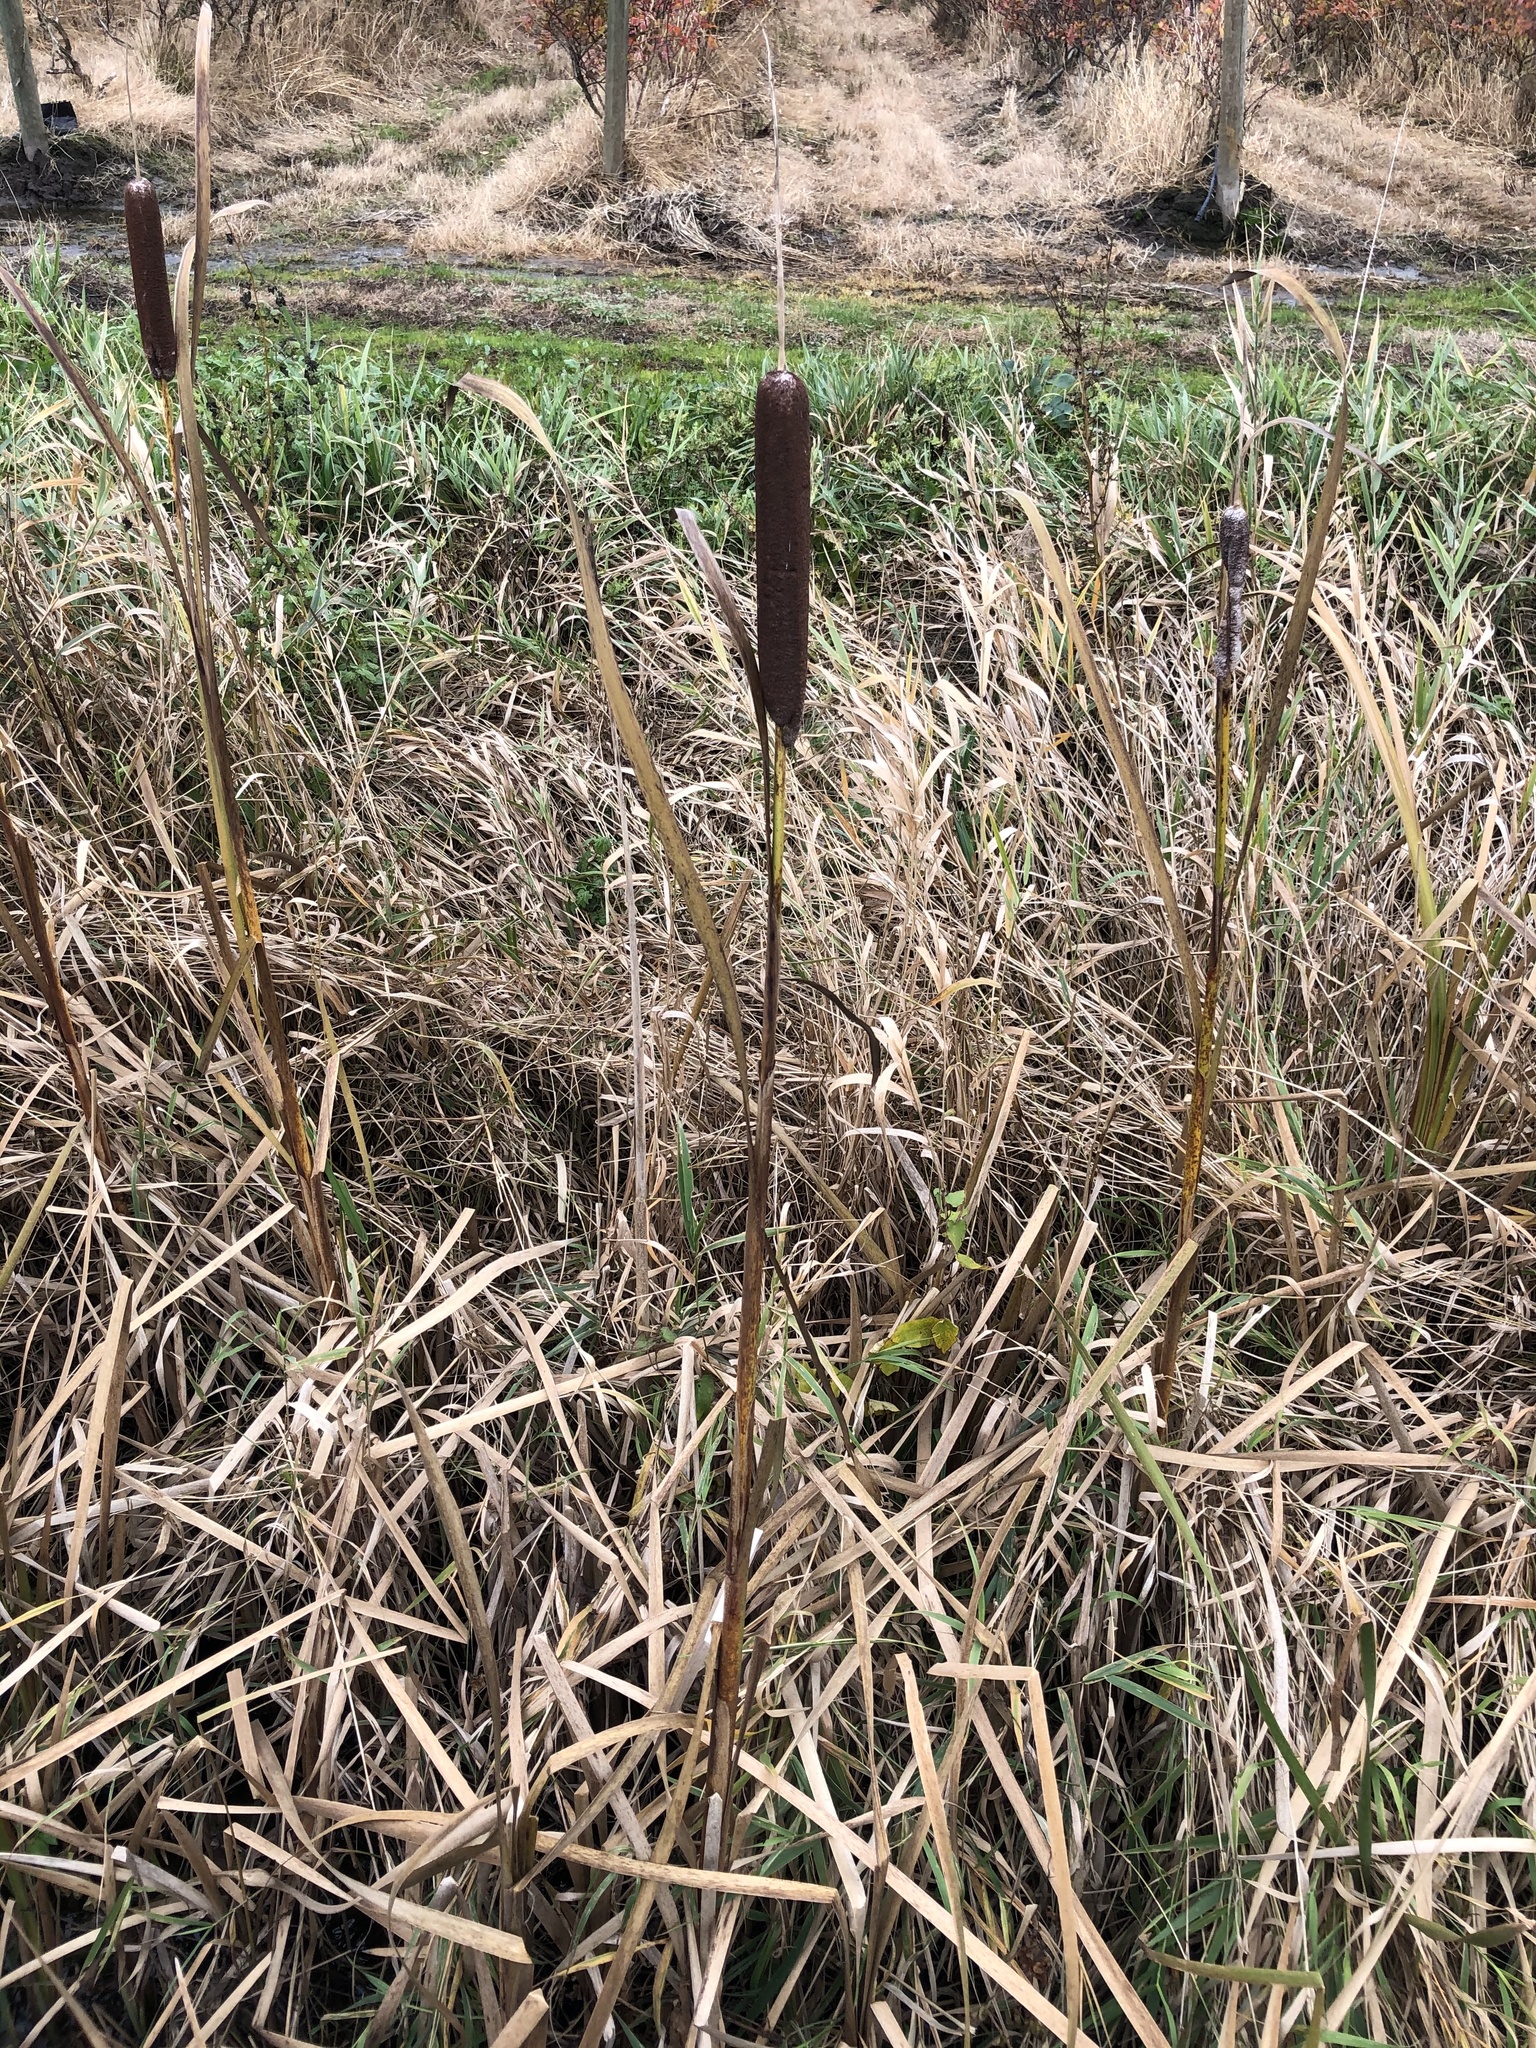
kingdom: Plantae
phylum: Tracheophyta
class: Liliopsida
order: Poales
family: Typhaceae
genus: Typha
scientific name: Typha latifolia
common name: Broadleaf cattail
